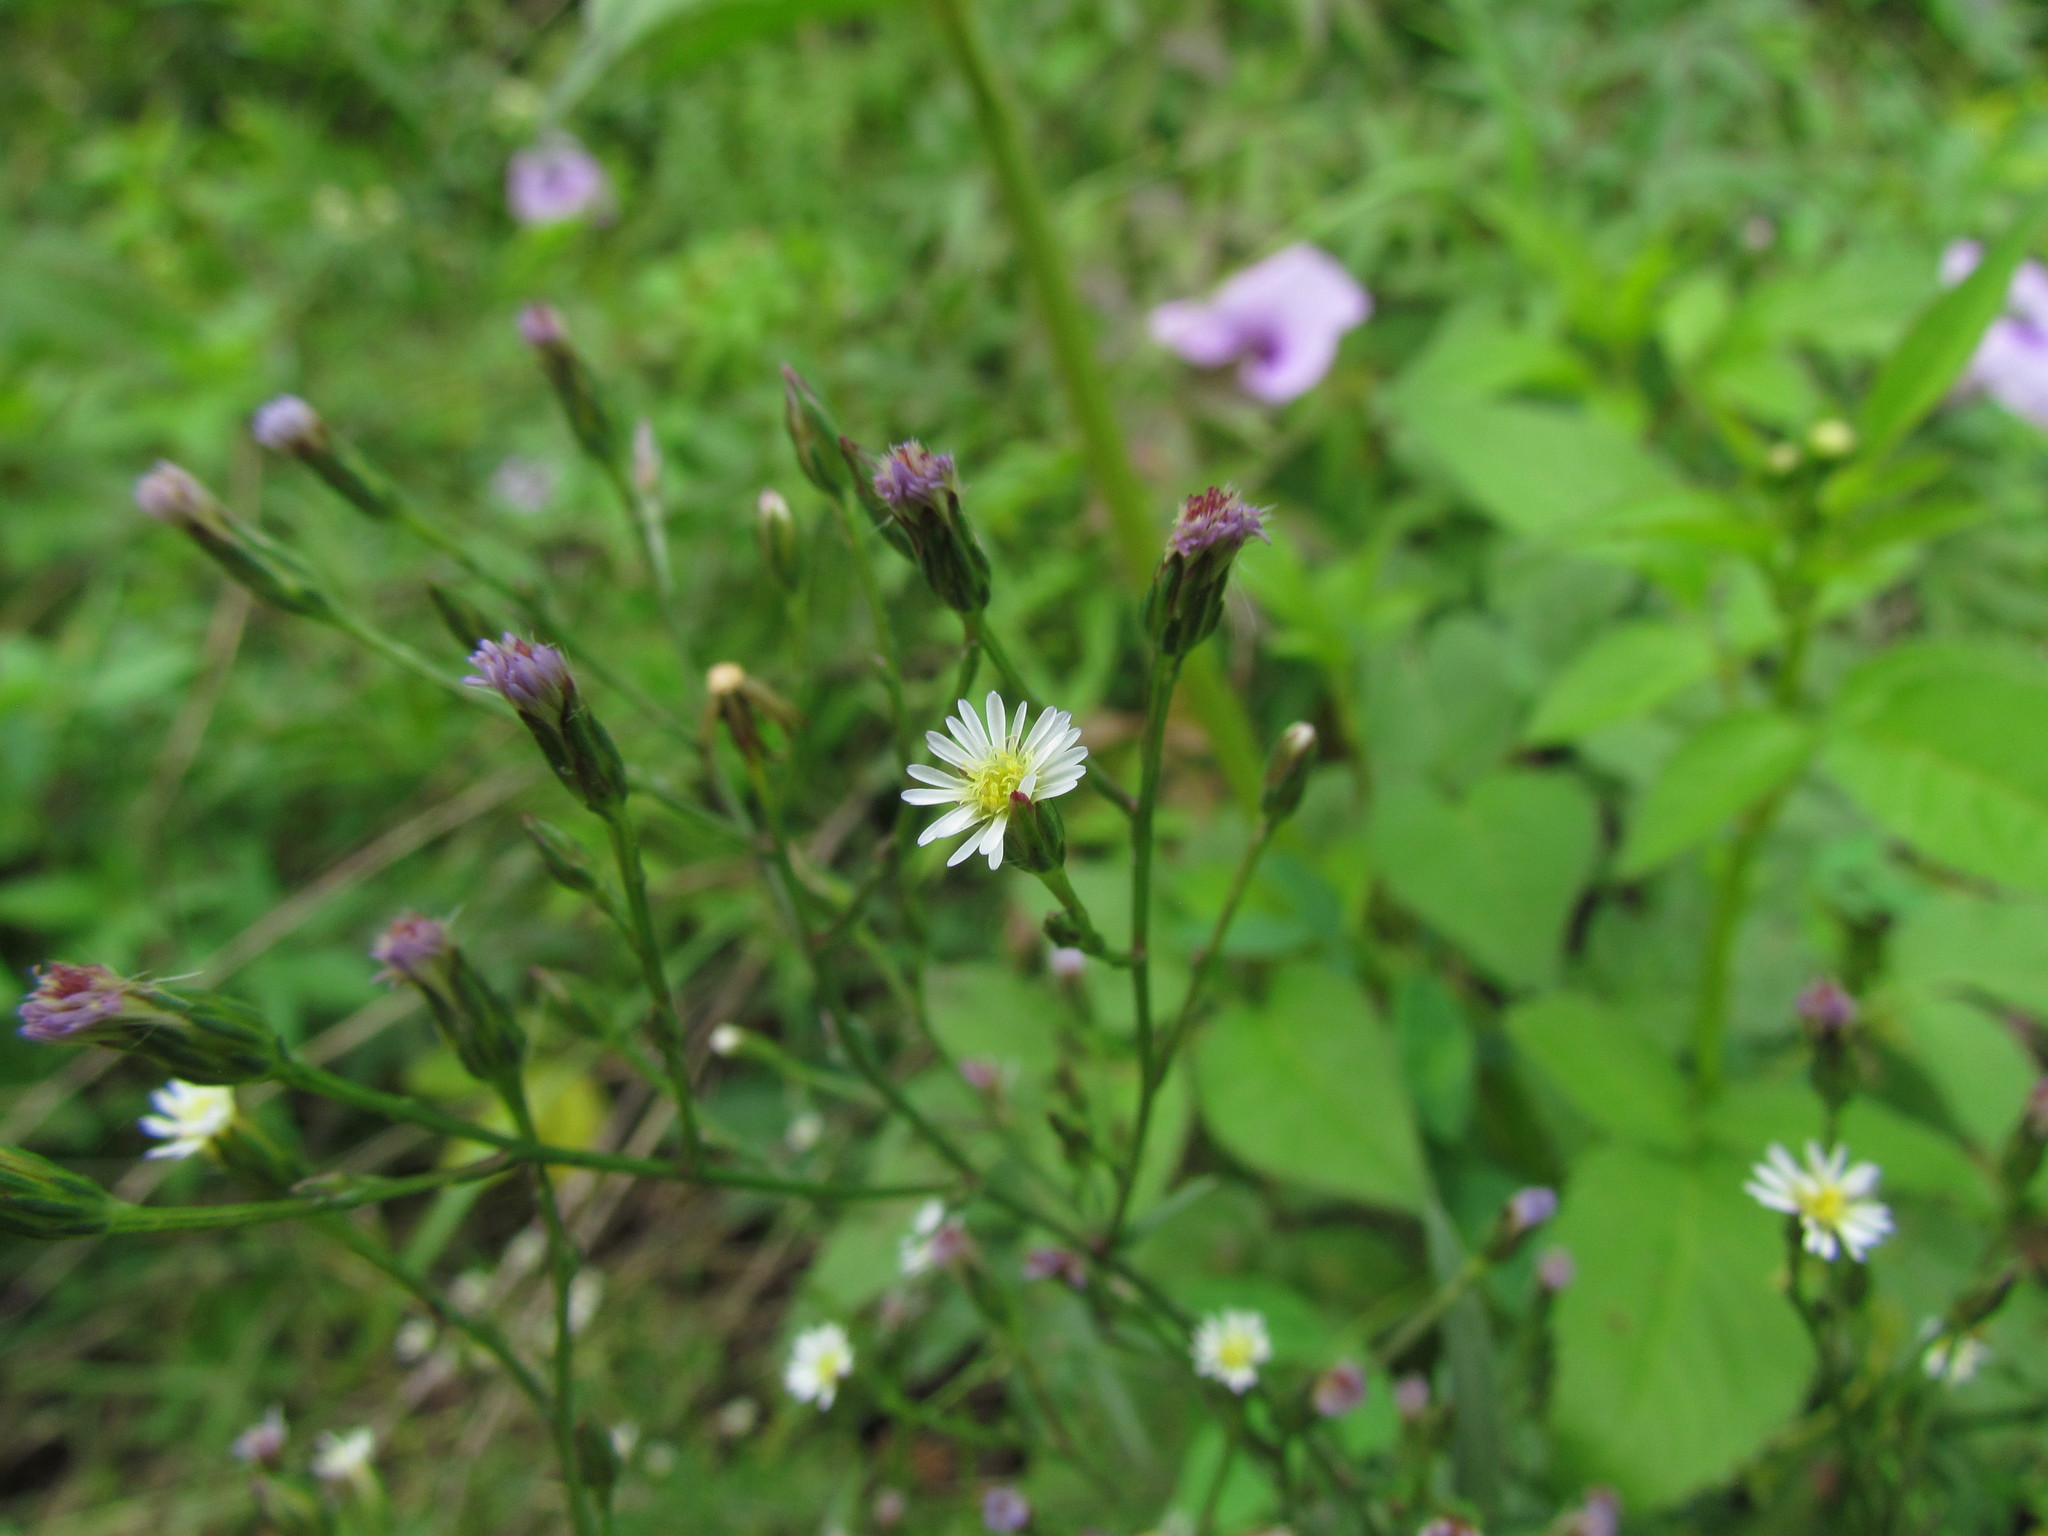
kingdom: Plantae
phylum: Tracheophyta
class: Magnoliopsida
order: Asterales
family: Asteraceae
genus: Symphyotrichum
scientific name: Symphyotrichum squamatum
